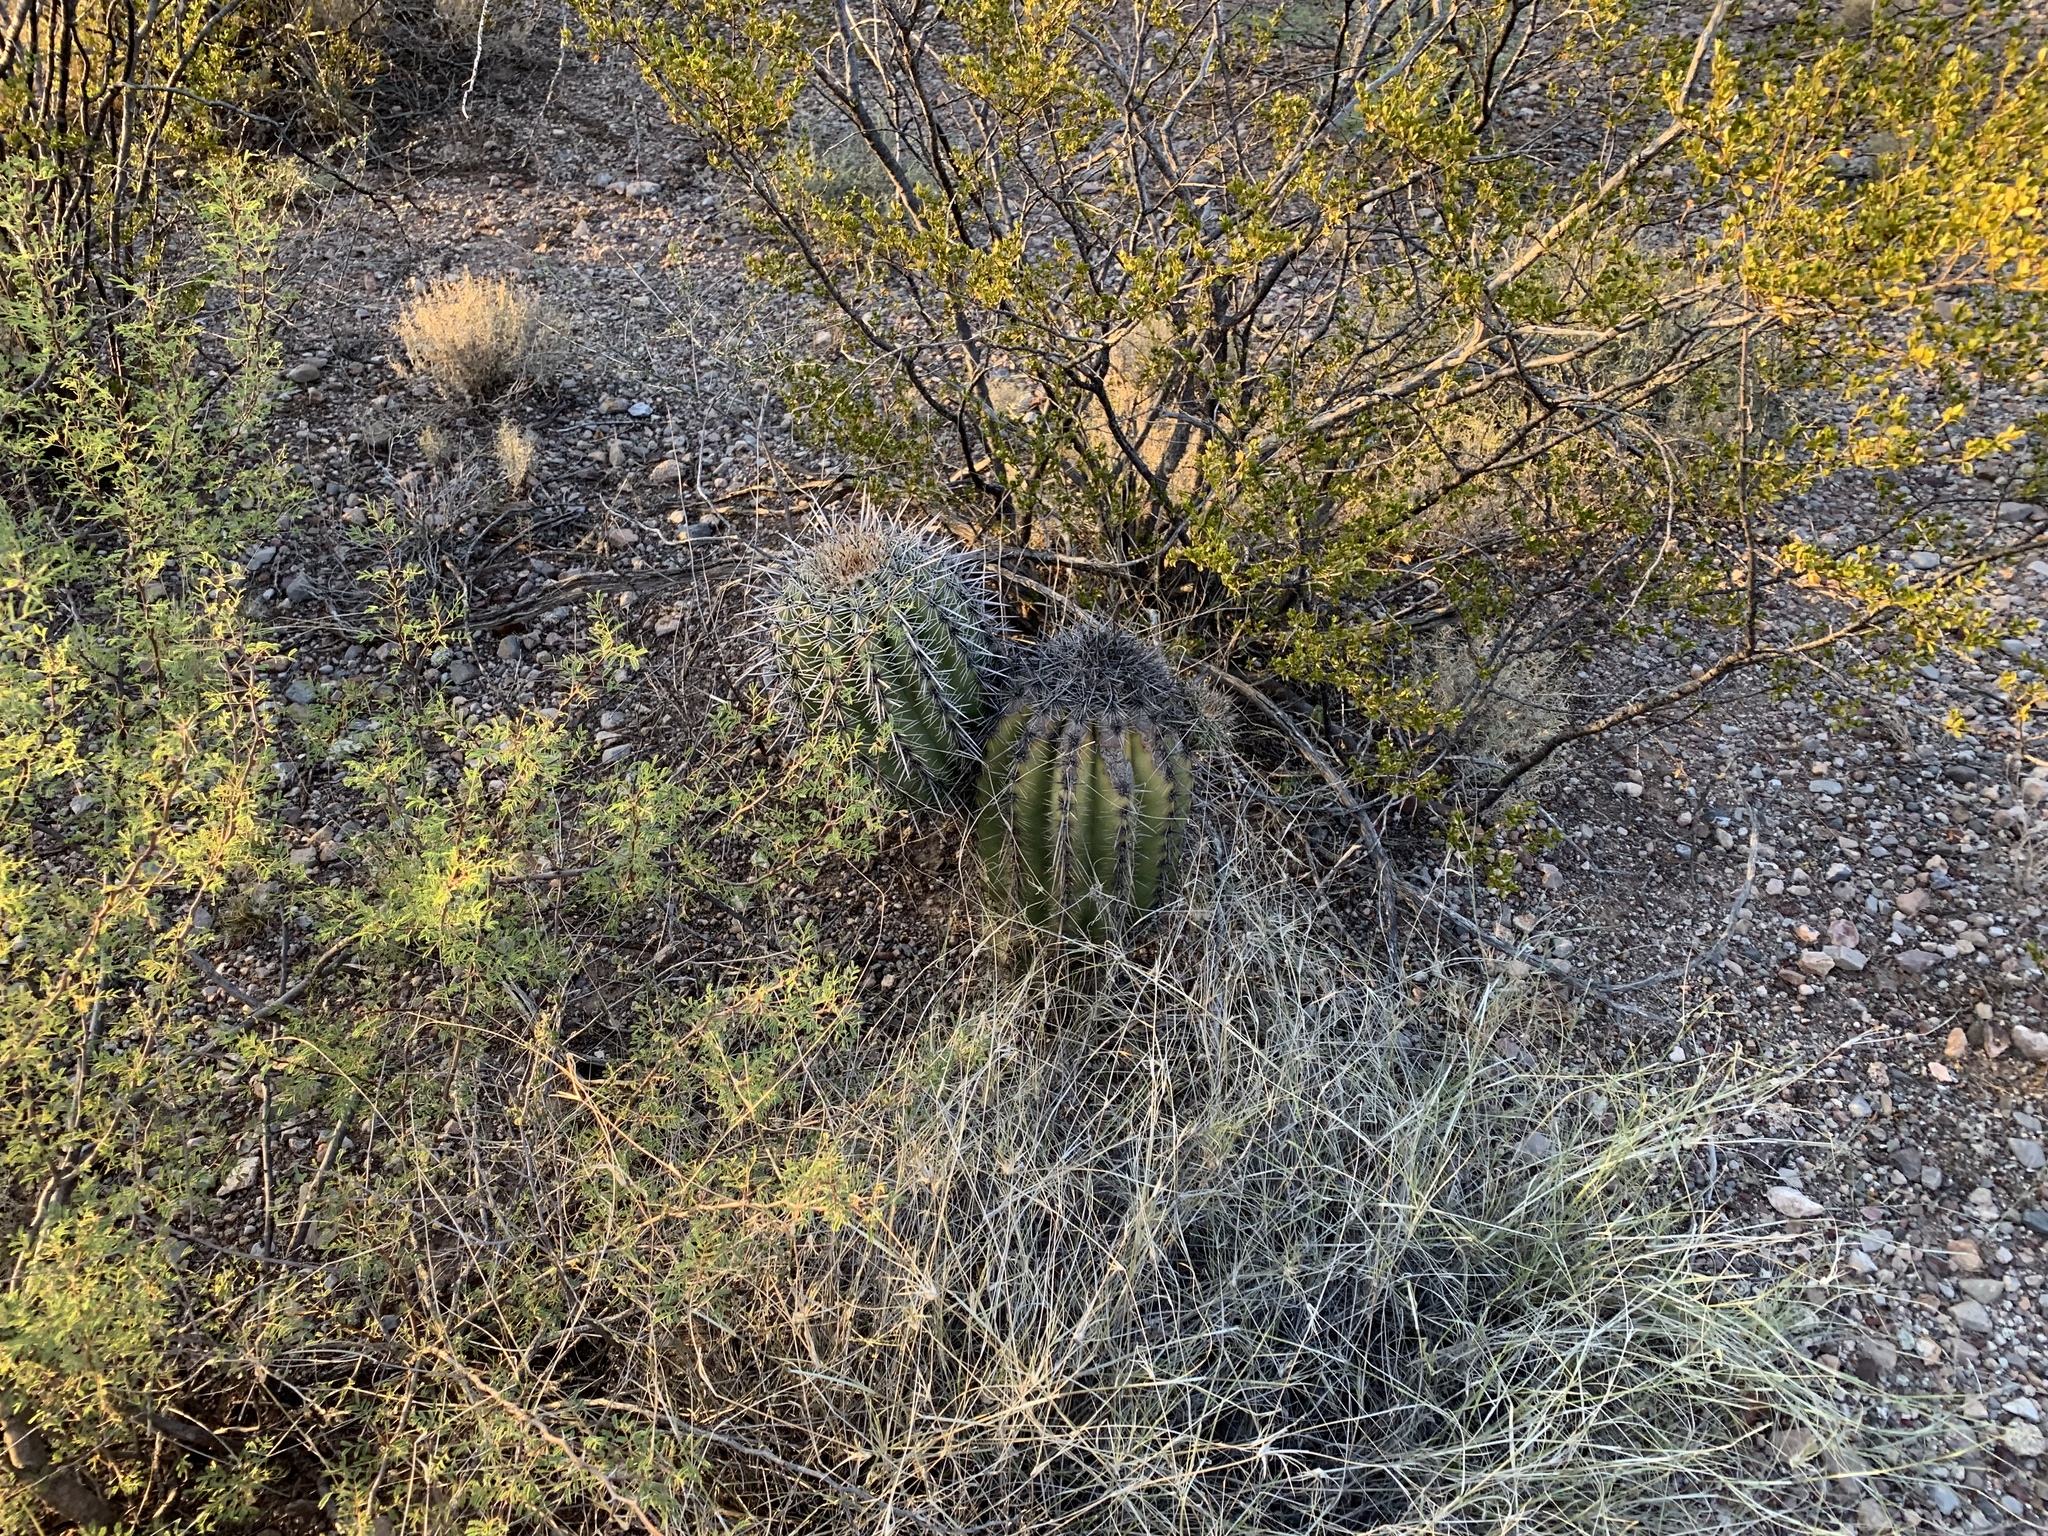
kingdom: Plantae
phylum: Tracheophyta
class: Magnoliopsida
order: Caryophyllales
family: Cactaceae
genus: Carnegiea
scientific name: Carnegiea gigantea
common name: Saguaro
